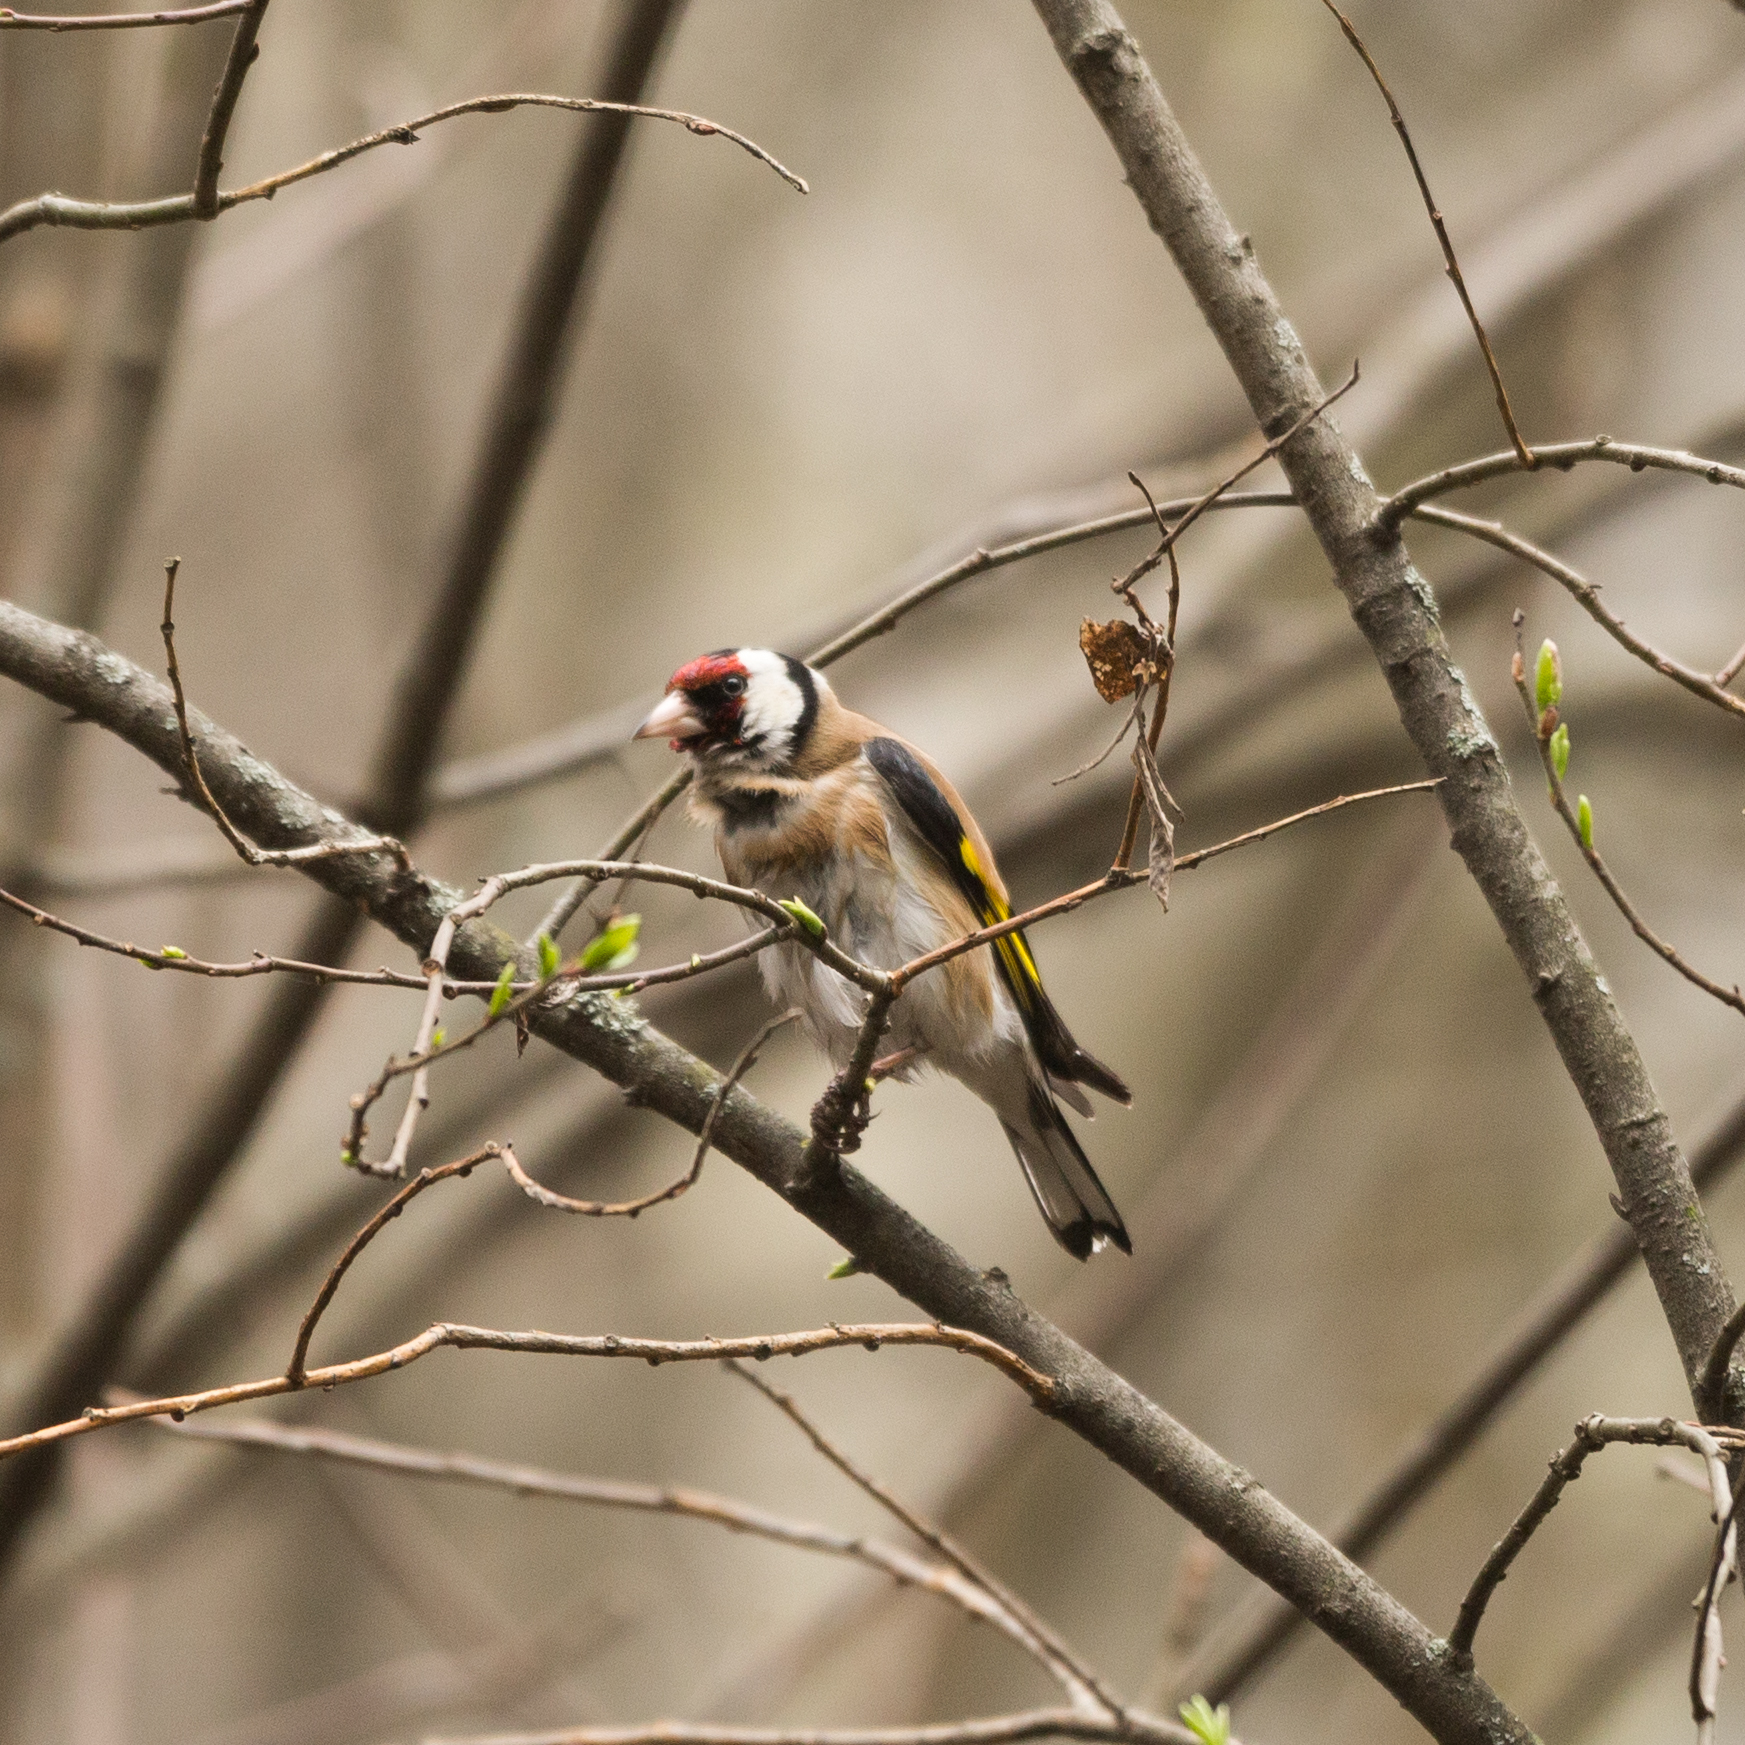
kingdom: Animalia
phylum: Chordata
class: Aves
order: Passeriformes
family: Fringillidae
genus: Carduelis
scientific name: Carduelis carduelis
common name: European goldfinch
